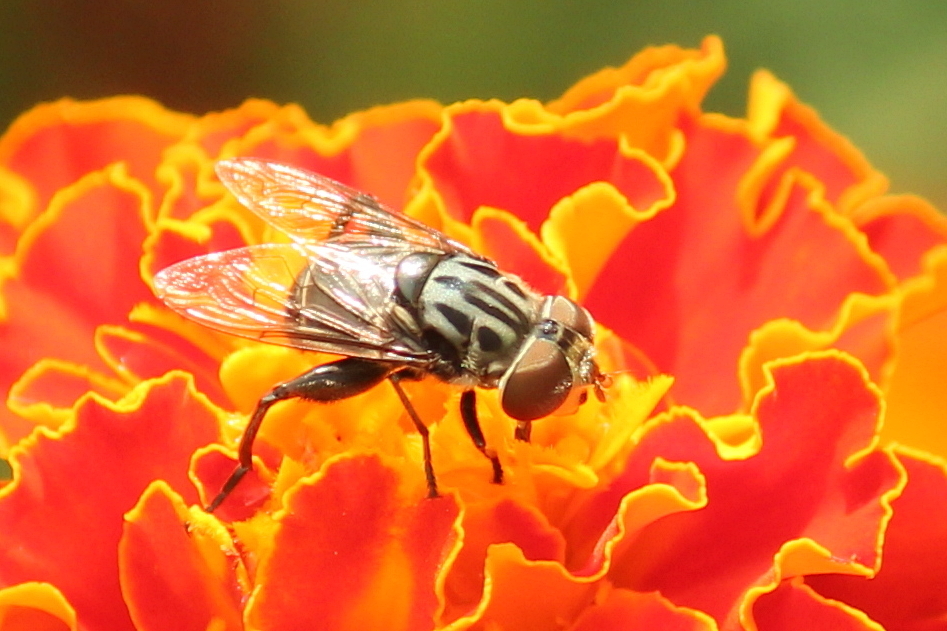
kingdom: Animalia
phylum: Arthropoda
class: Insecta
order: Diptera
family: Syrphidae
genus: Palpada
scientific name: Palpada furcata
